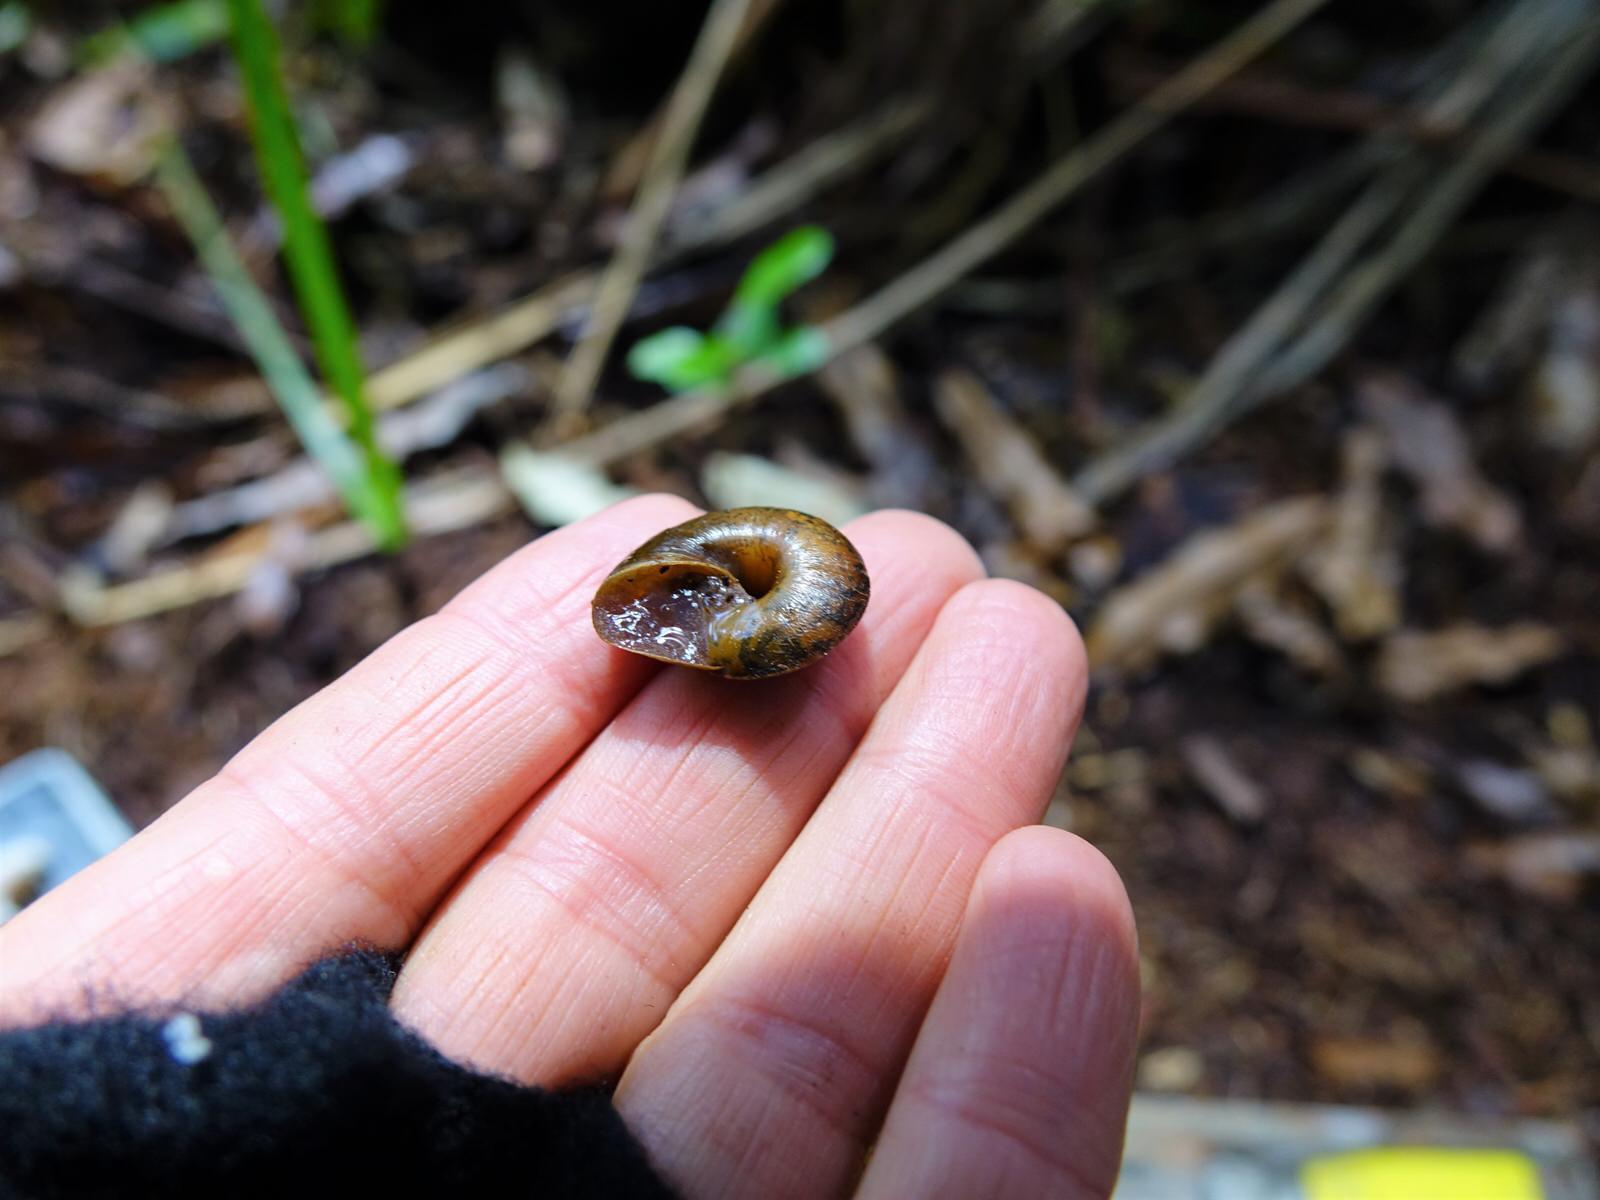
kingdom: Animalia
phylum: Mollusca
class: Gastropoda
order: Stylommatophora
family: Rhytididae
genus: Amborhytida
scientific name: Amborhytida dunniae
